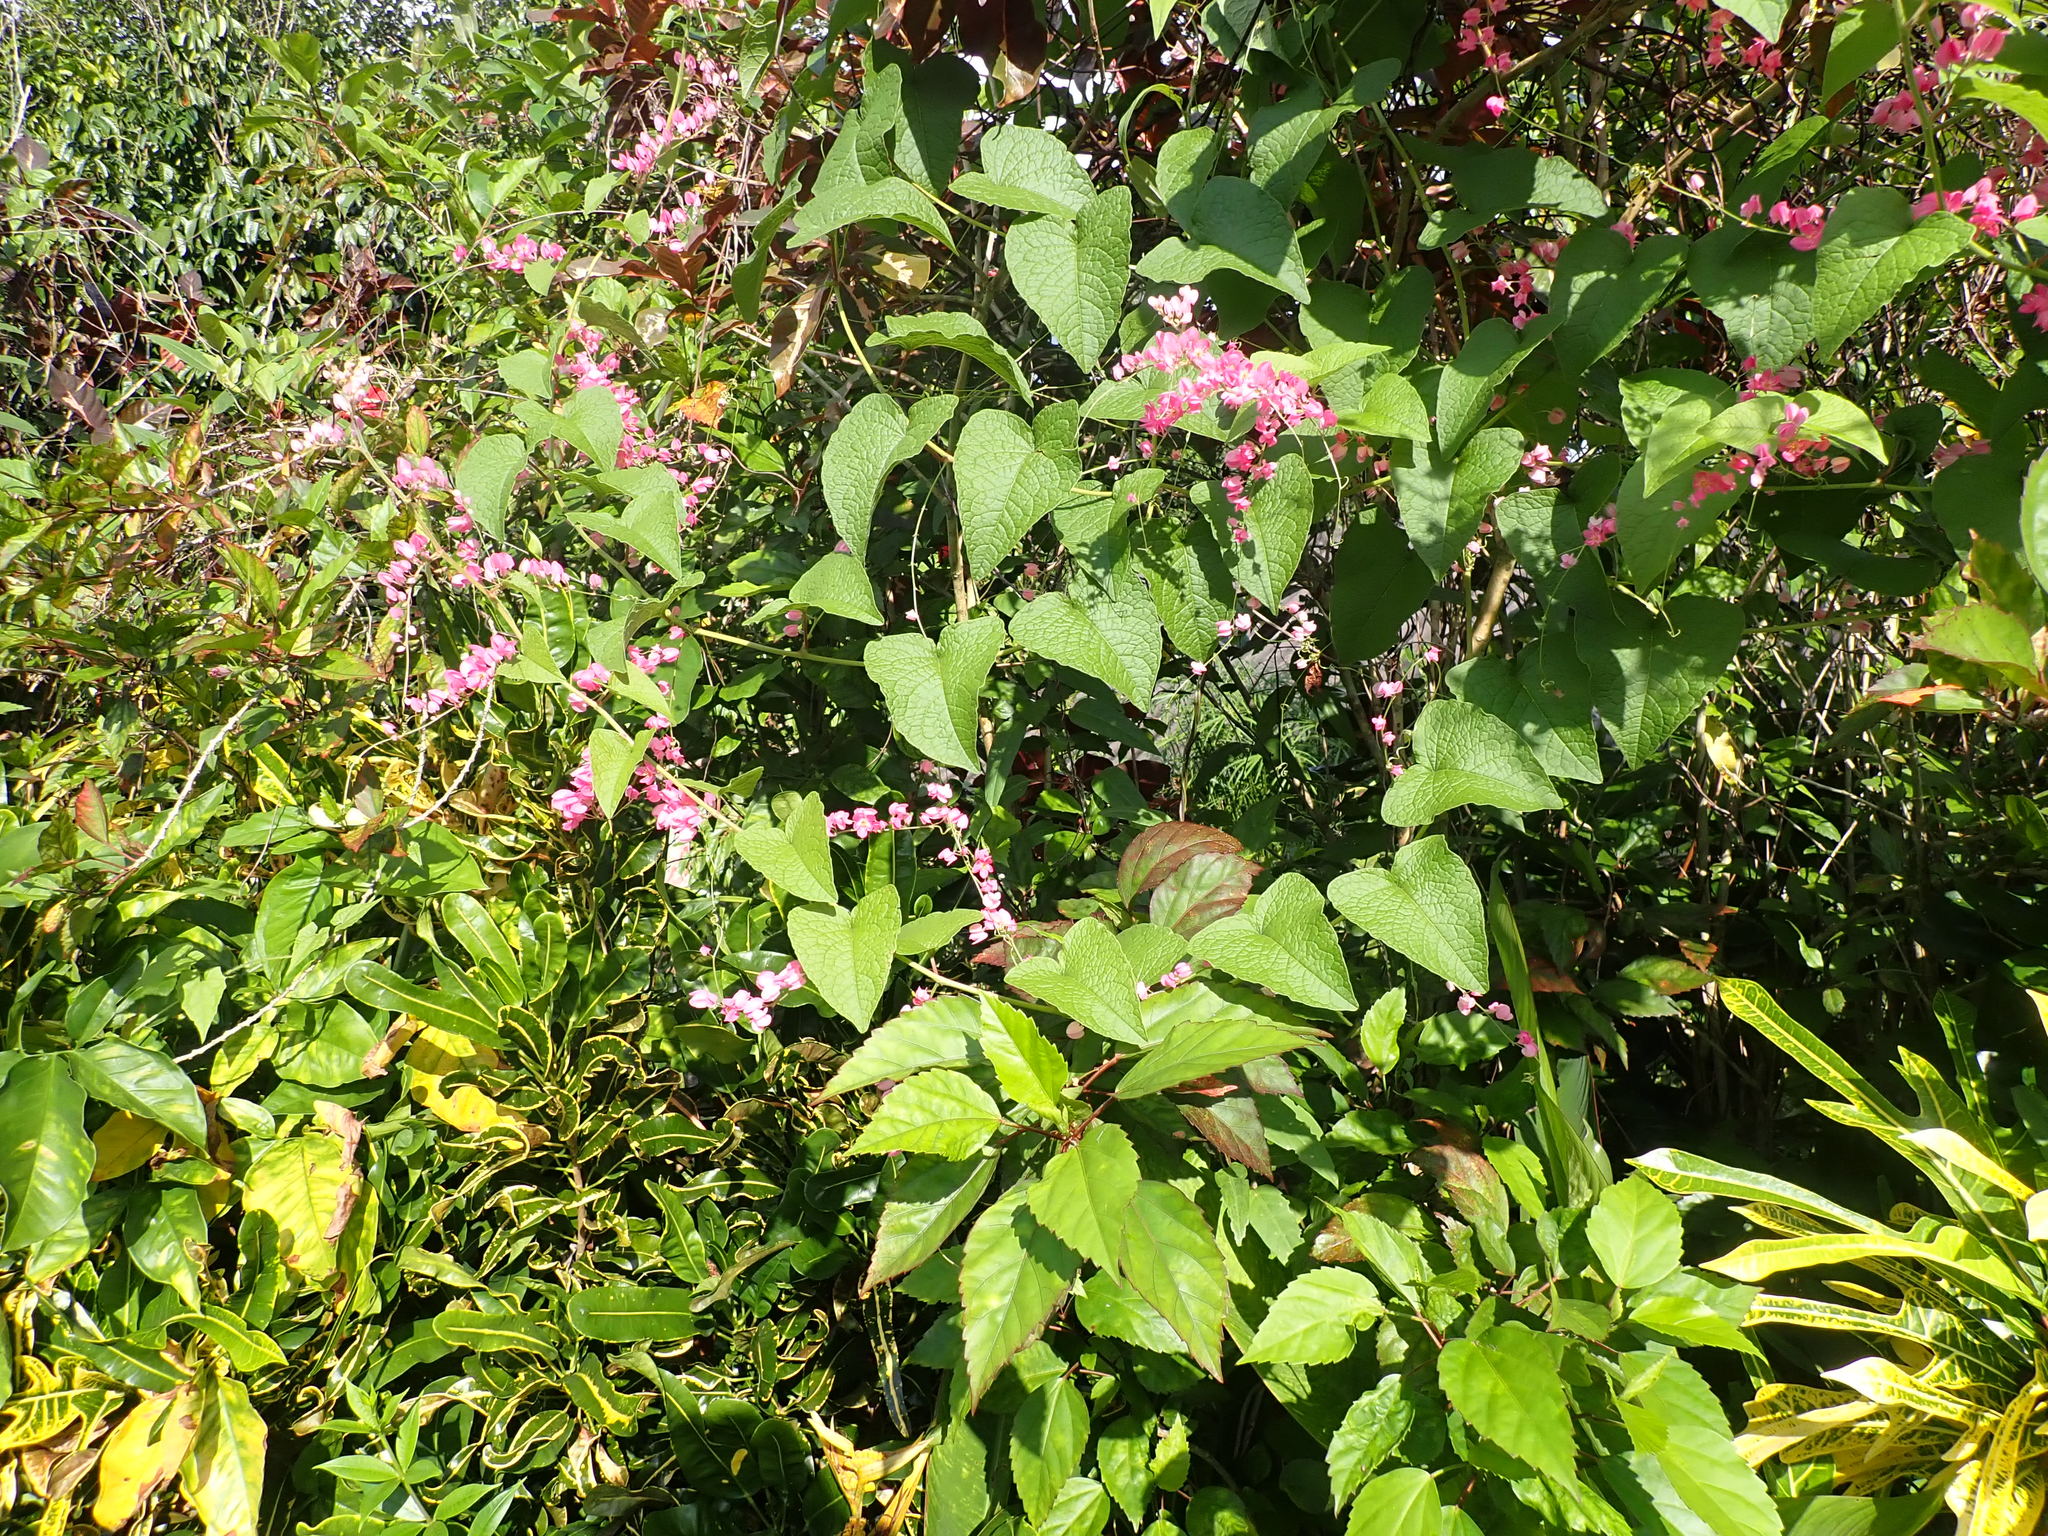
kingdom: Plantae
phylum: Tracheophyta
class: Magnoliopsida
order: Caryophyllales
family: Polygonaceae
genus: Antigonon
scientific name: Antigonon leptopus
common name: Coral vine
